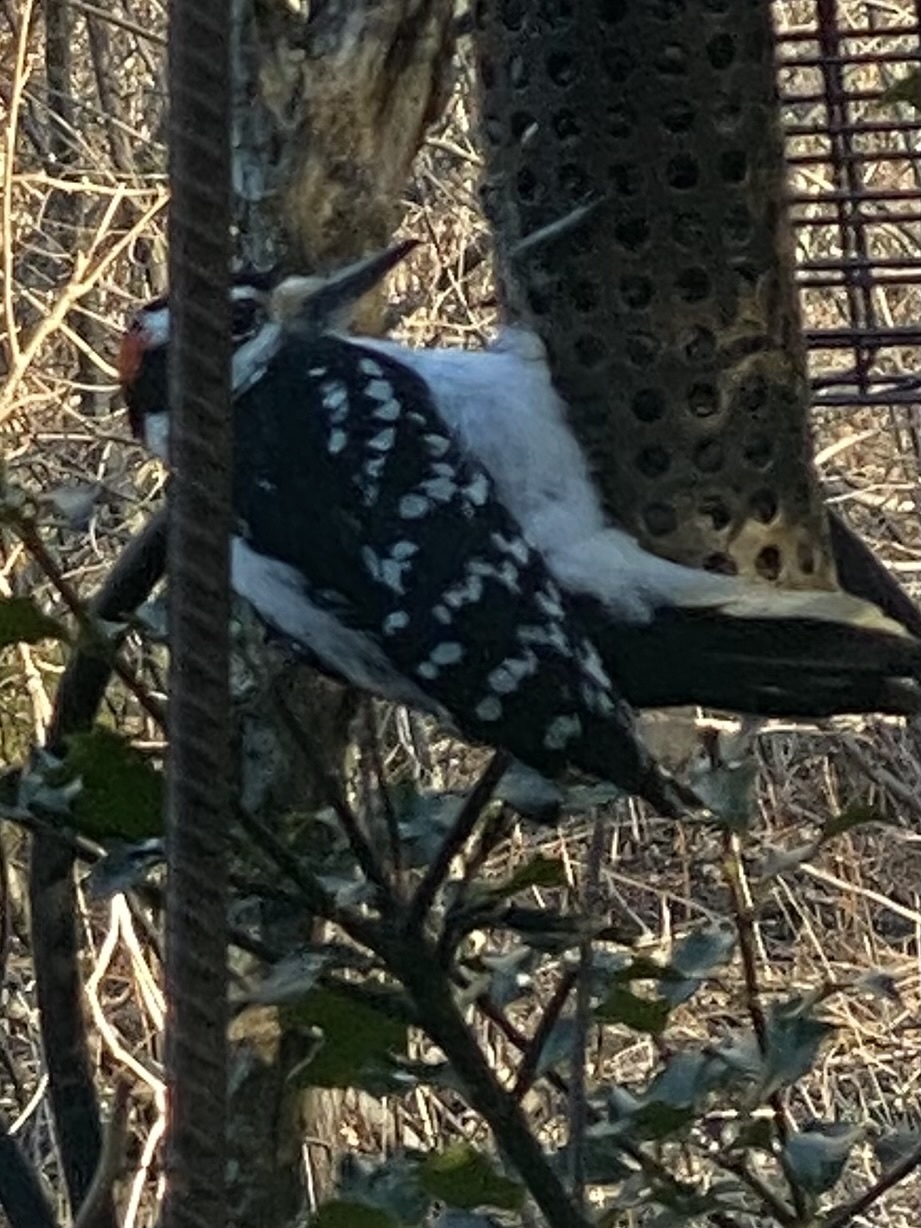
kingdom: Animalia
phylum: Chordata
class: Aves
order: Piciformes
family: Picidae
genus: Leuconotopicus
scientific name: Leuconotopicus villosus
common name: Hairy woodpecker
